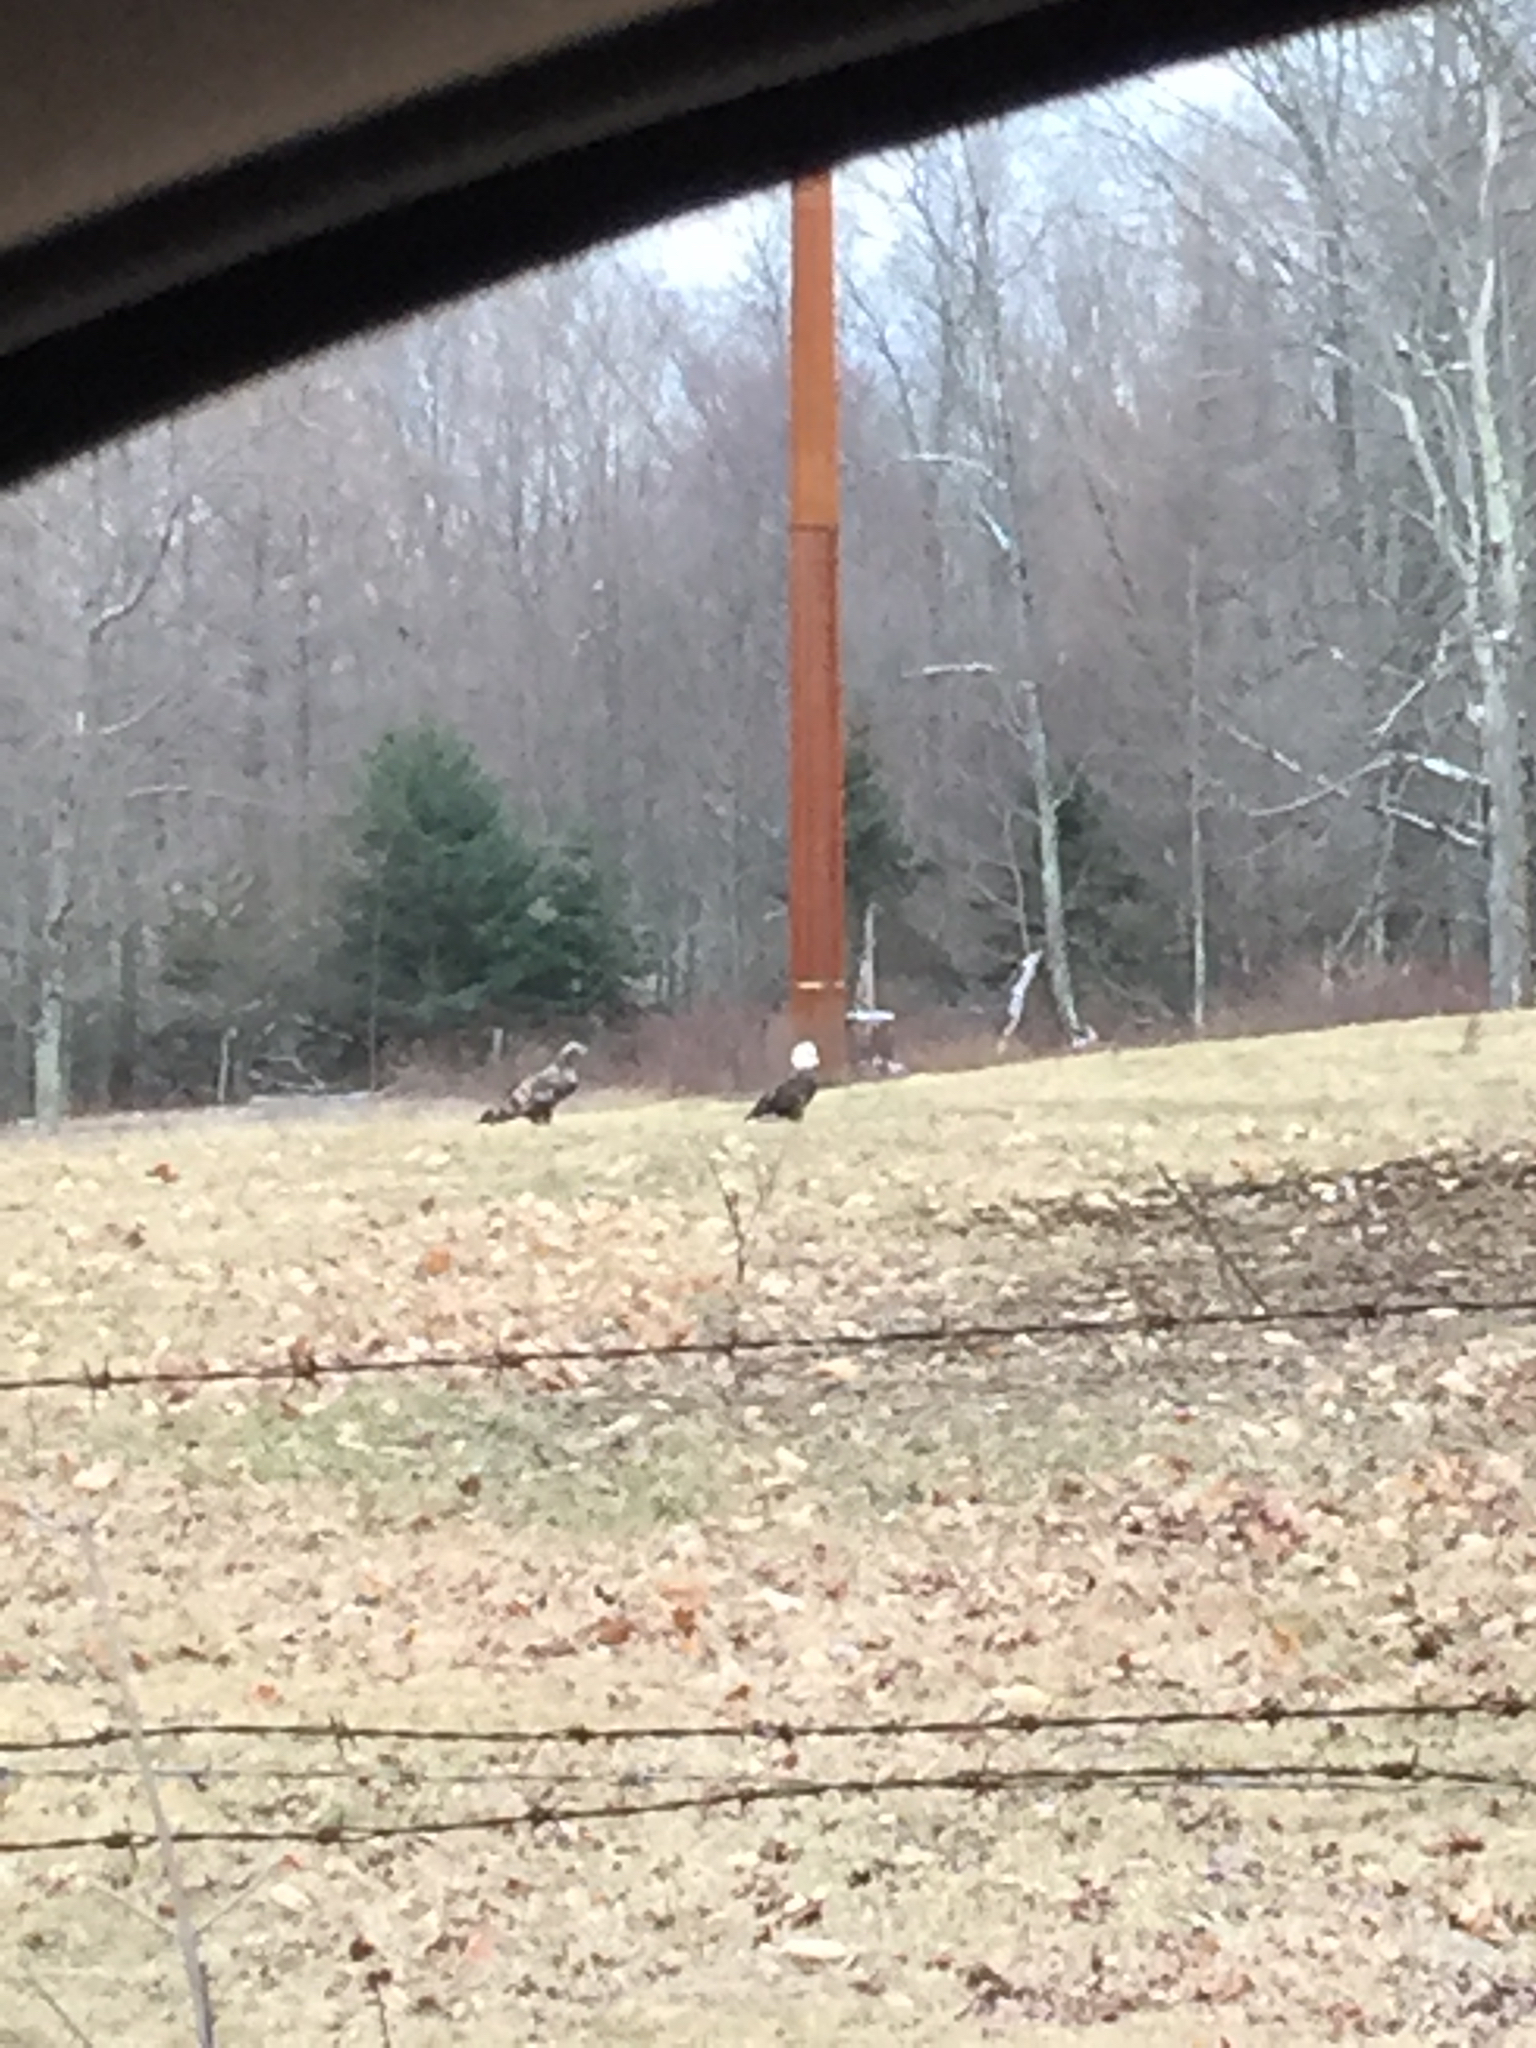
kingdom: Animalia
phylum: Chordata
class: Aves
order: Accipitriformes
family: Accipitridae
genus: Haliaeetus
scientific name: Haliaeetus leucocephalus
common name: Bald eagle
